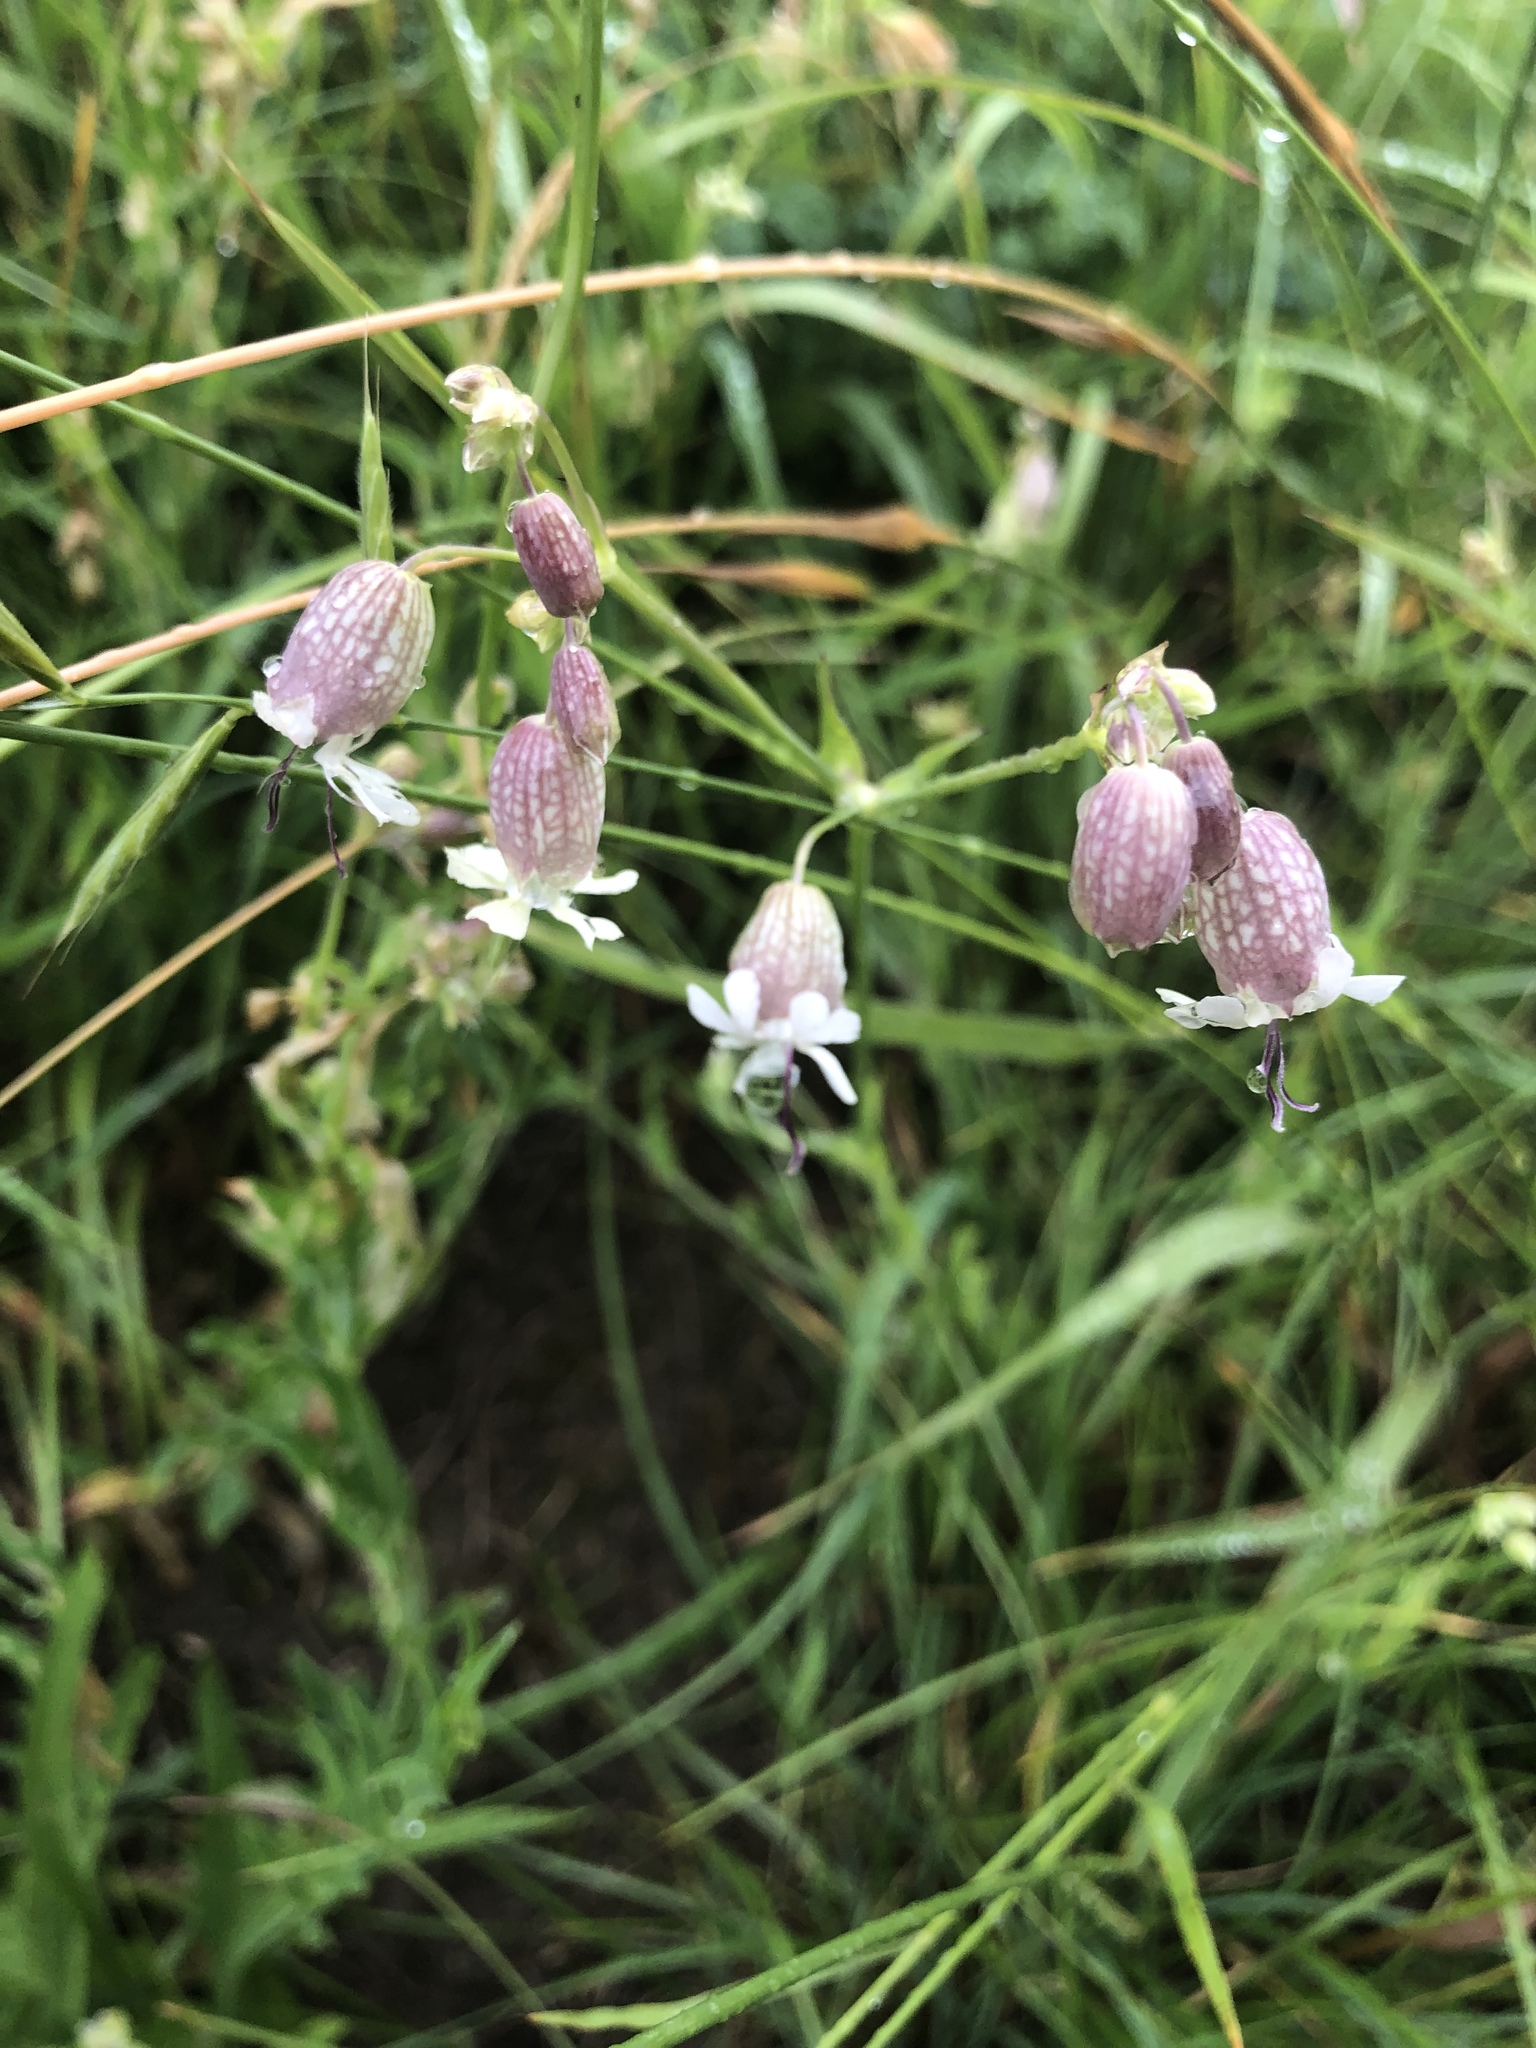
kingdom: Plantae
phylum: Tracheophyta
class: Magnoliopsida
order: Caryophyllales
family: Caryophyllaceae
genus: Silene
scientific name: Silene vulgaris
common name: Bladder campion
